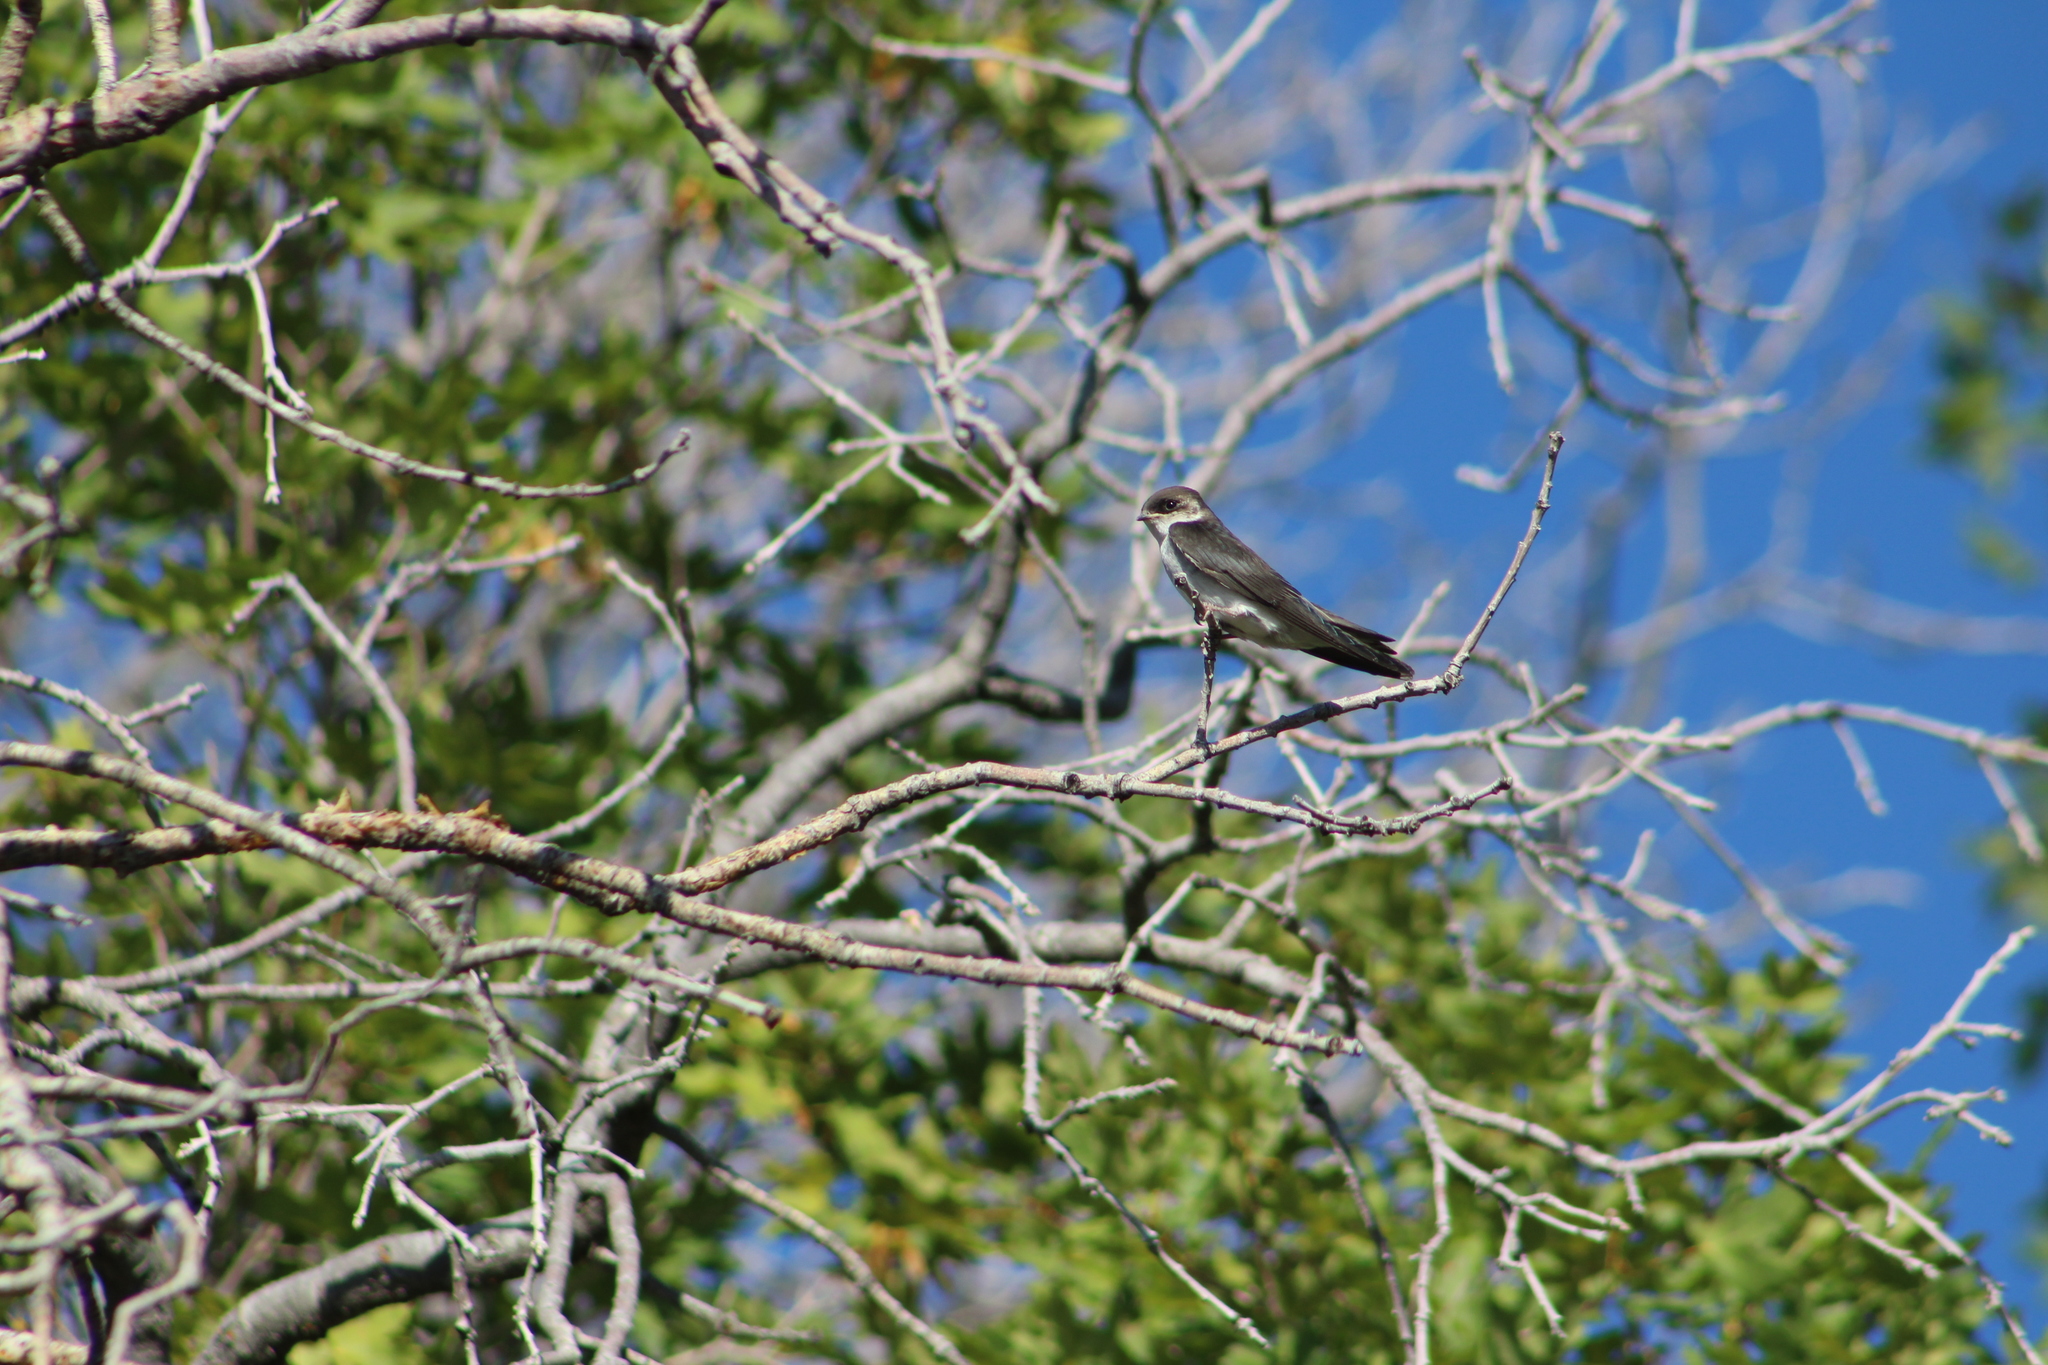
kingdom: Animalia
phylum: Chordata
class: Aves
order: Passeriformes
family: Hirundinidae
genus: Tachycineta
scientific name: Tachycineta bicolor
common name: Tree swallow
